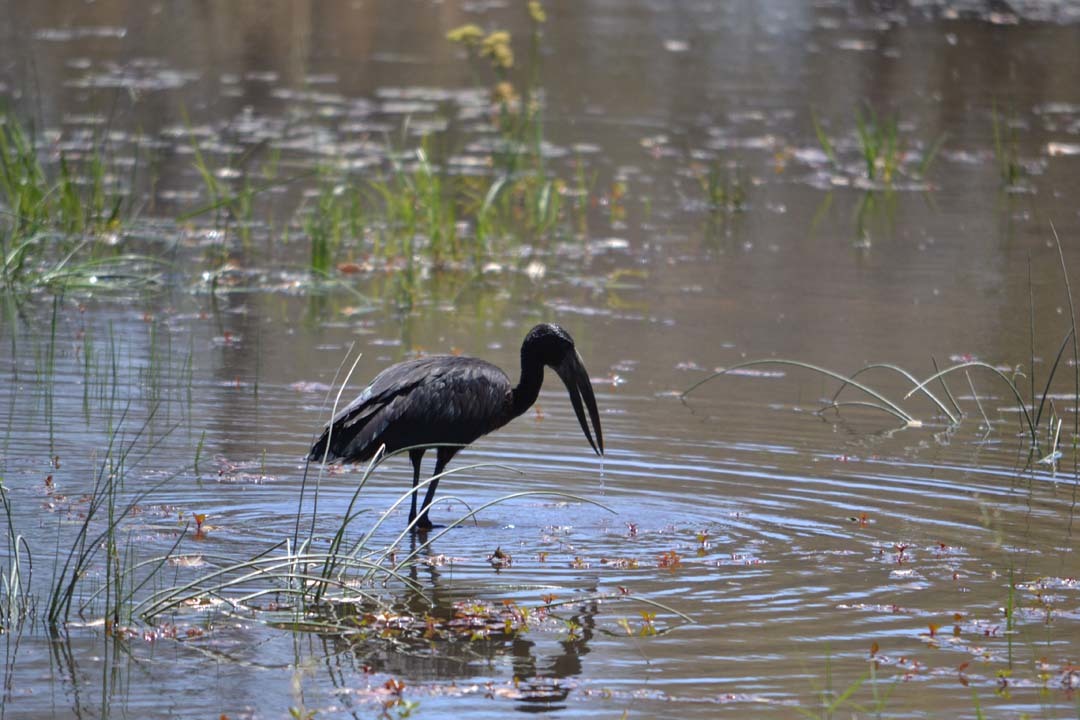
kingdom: Animalia
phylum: Chordata
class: Aves
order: Ciconiiformes
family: Ciconiidae
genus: Anastomus
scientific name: Anastomus lamelligerus
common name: African openbill
